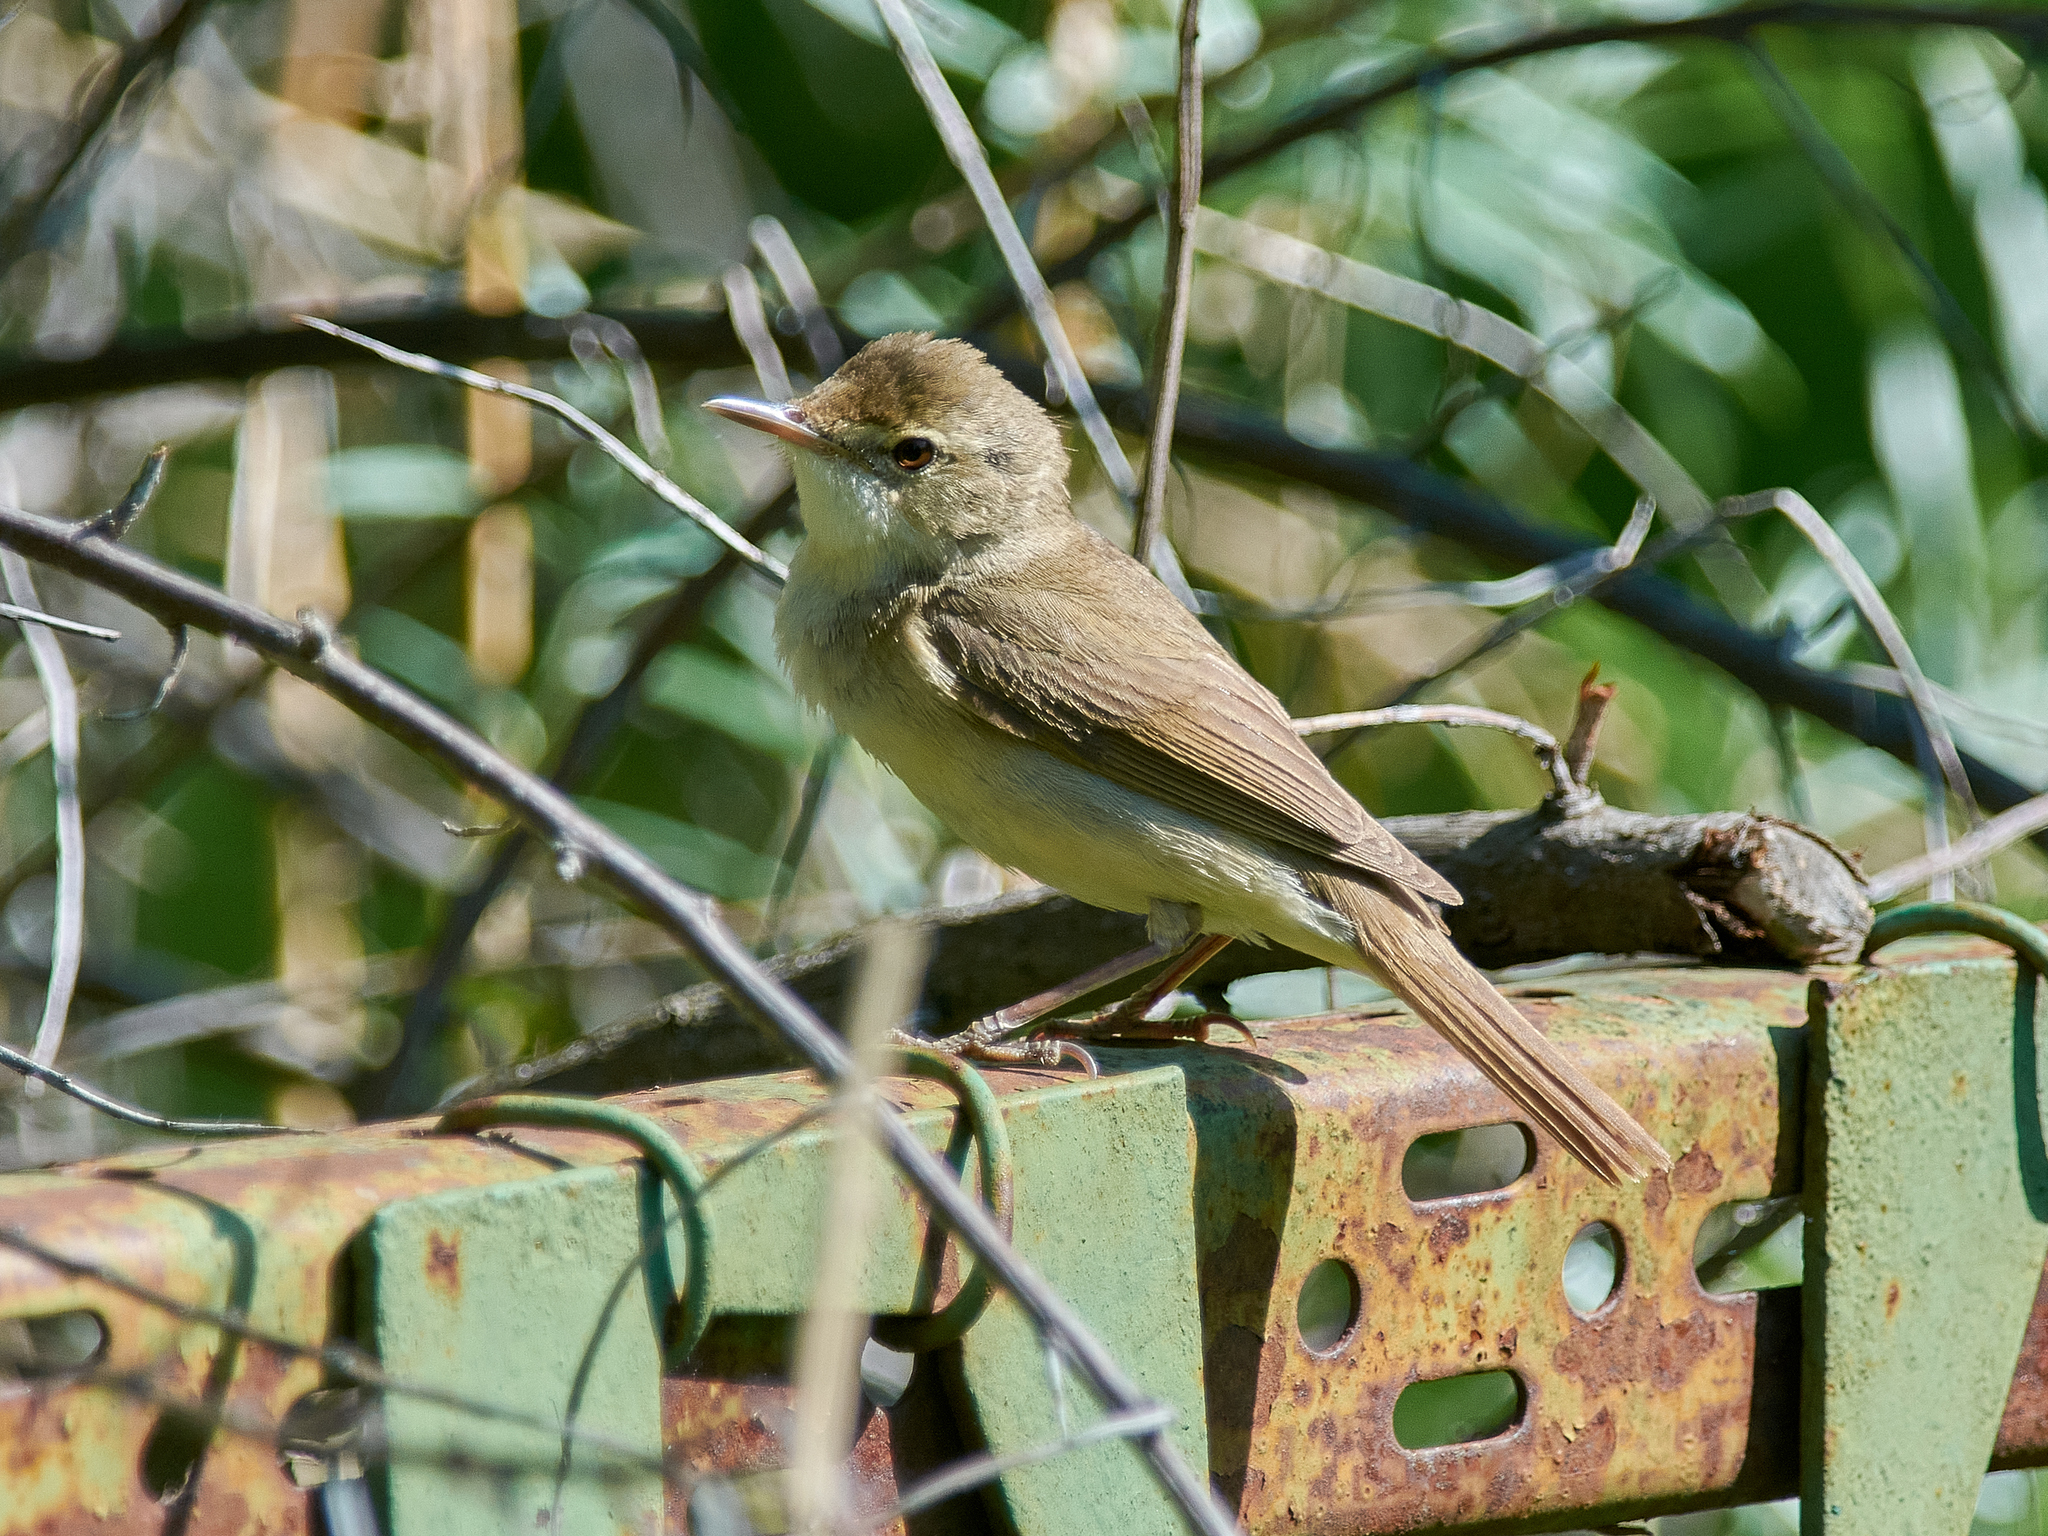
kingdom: Animalia
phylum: Chordata
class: Aves
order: Passeriformes
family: Acrocephalidae
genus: Acrocephalus
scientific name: Acrocephalus dumetorum
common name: Blyth's reed warbler
